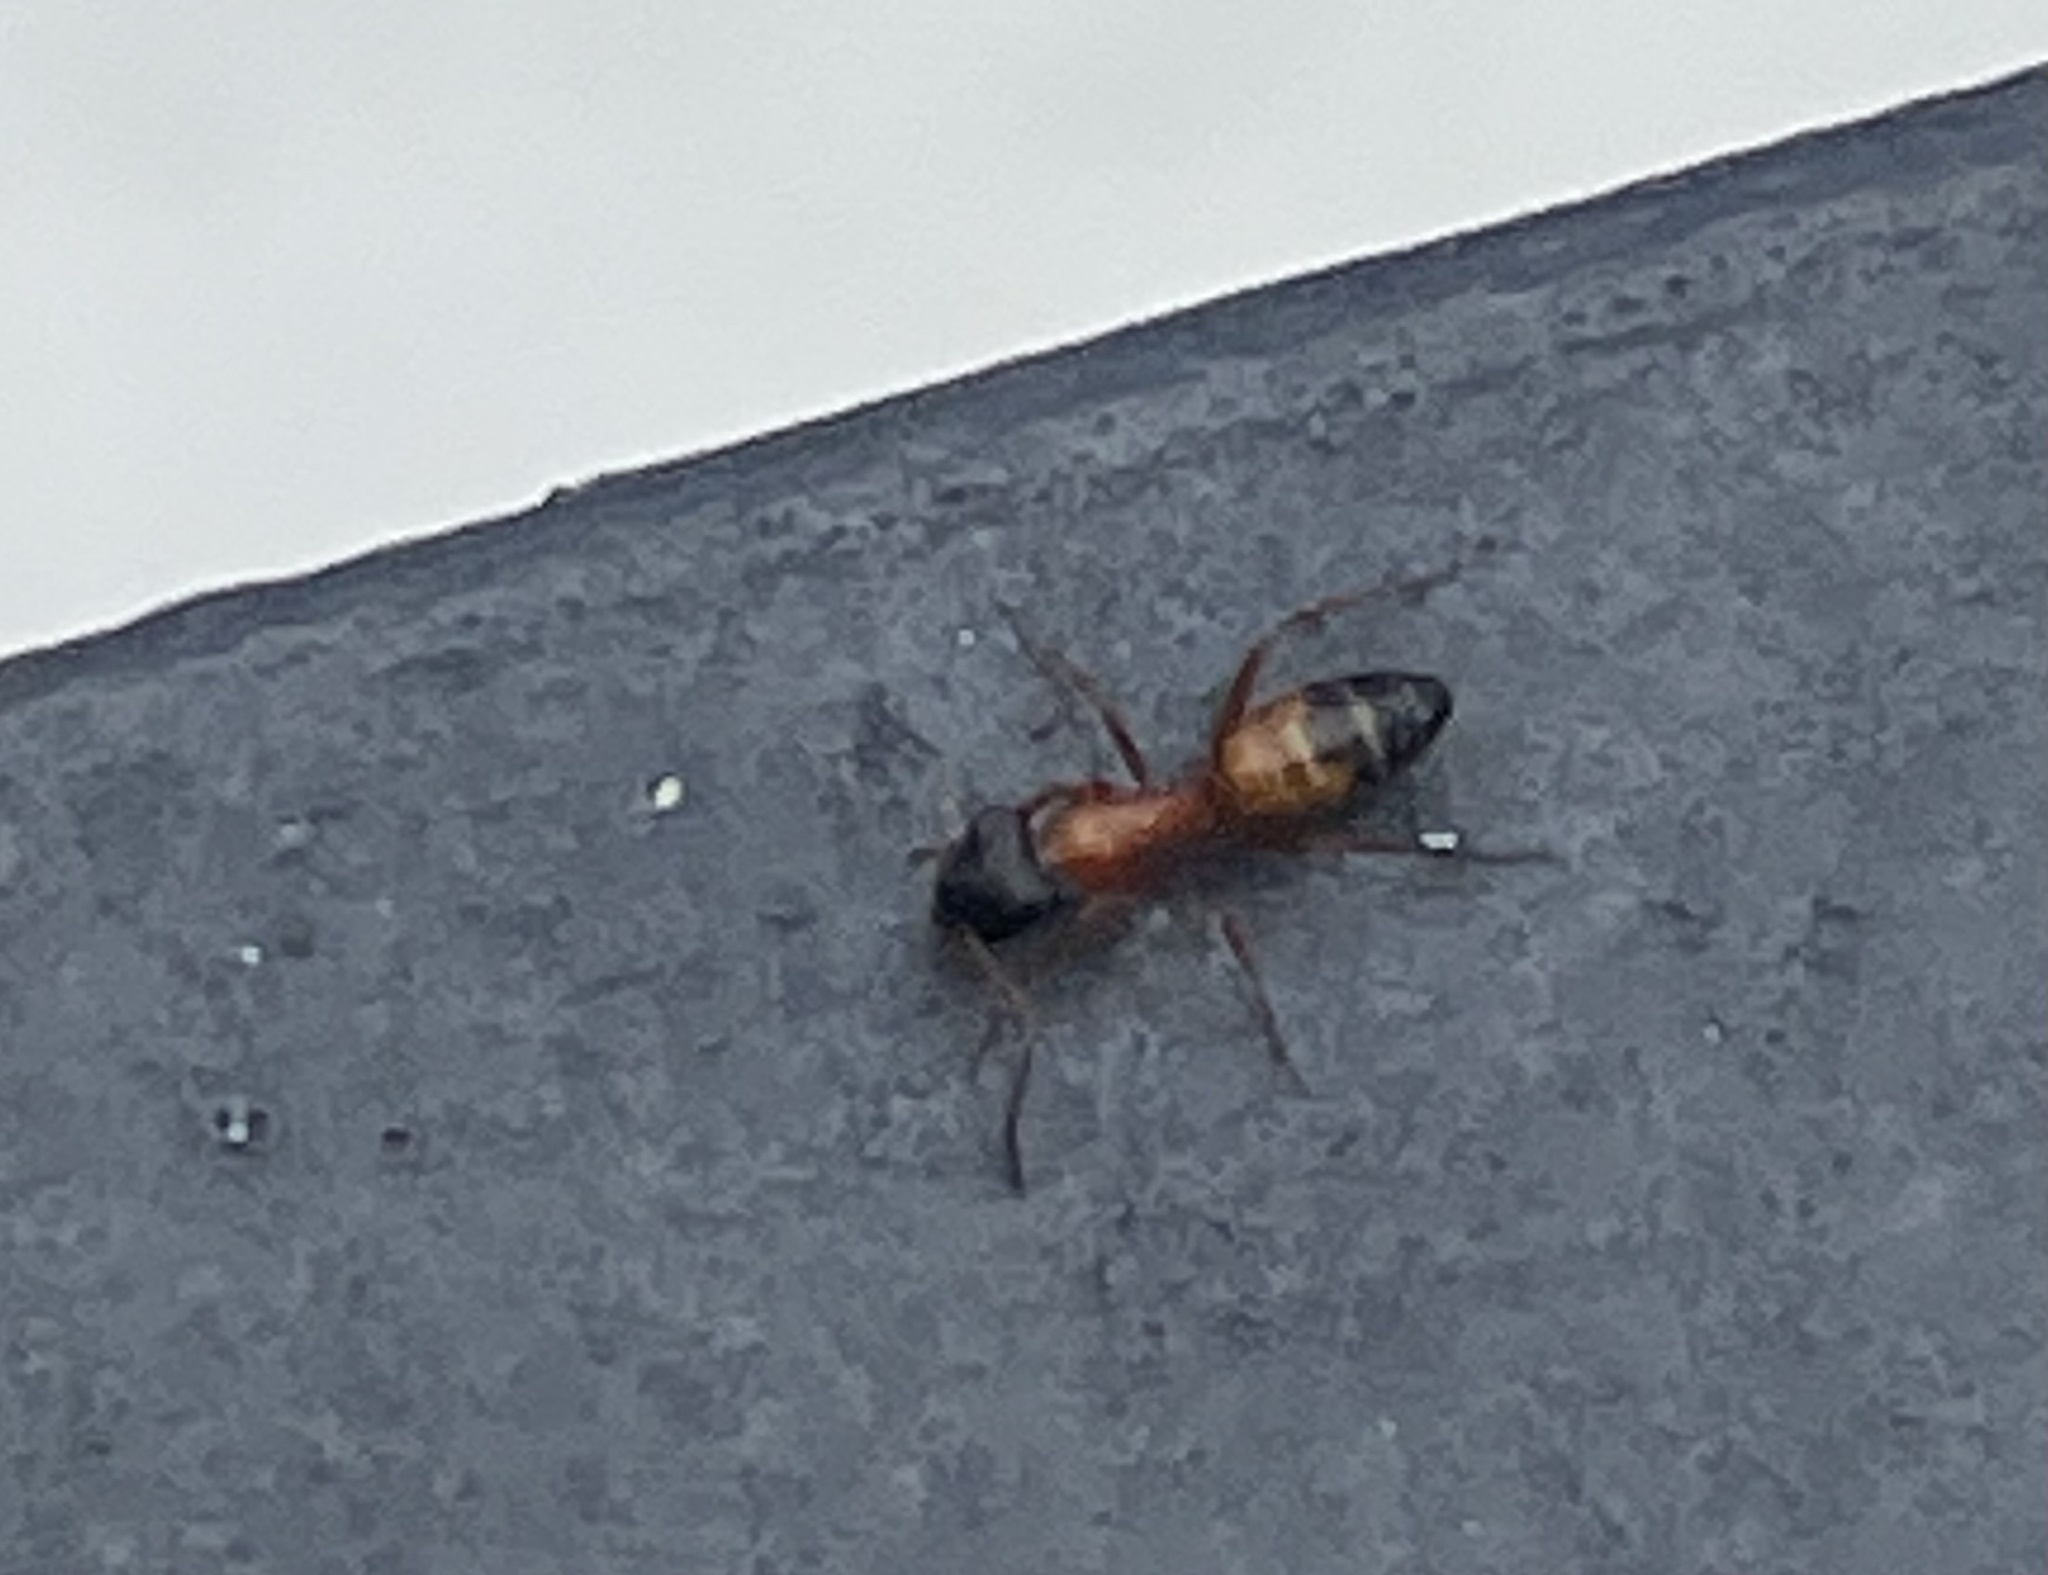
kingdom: Animalia
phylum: Arthropoda
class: Insecta
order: Hymenoptera
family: Formicidae
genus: Opisthopsis
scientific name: Opisthopsis rufithorax
